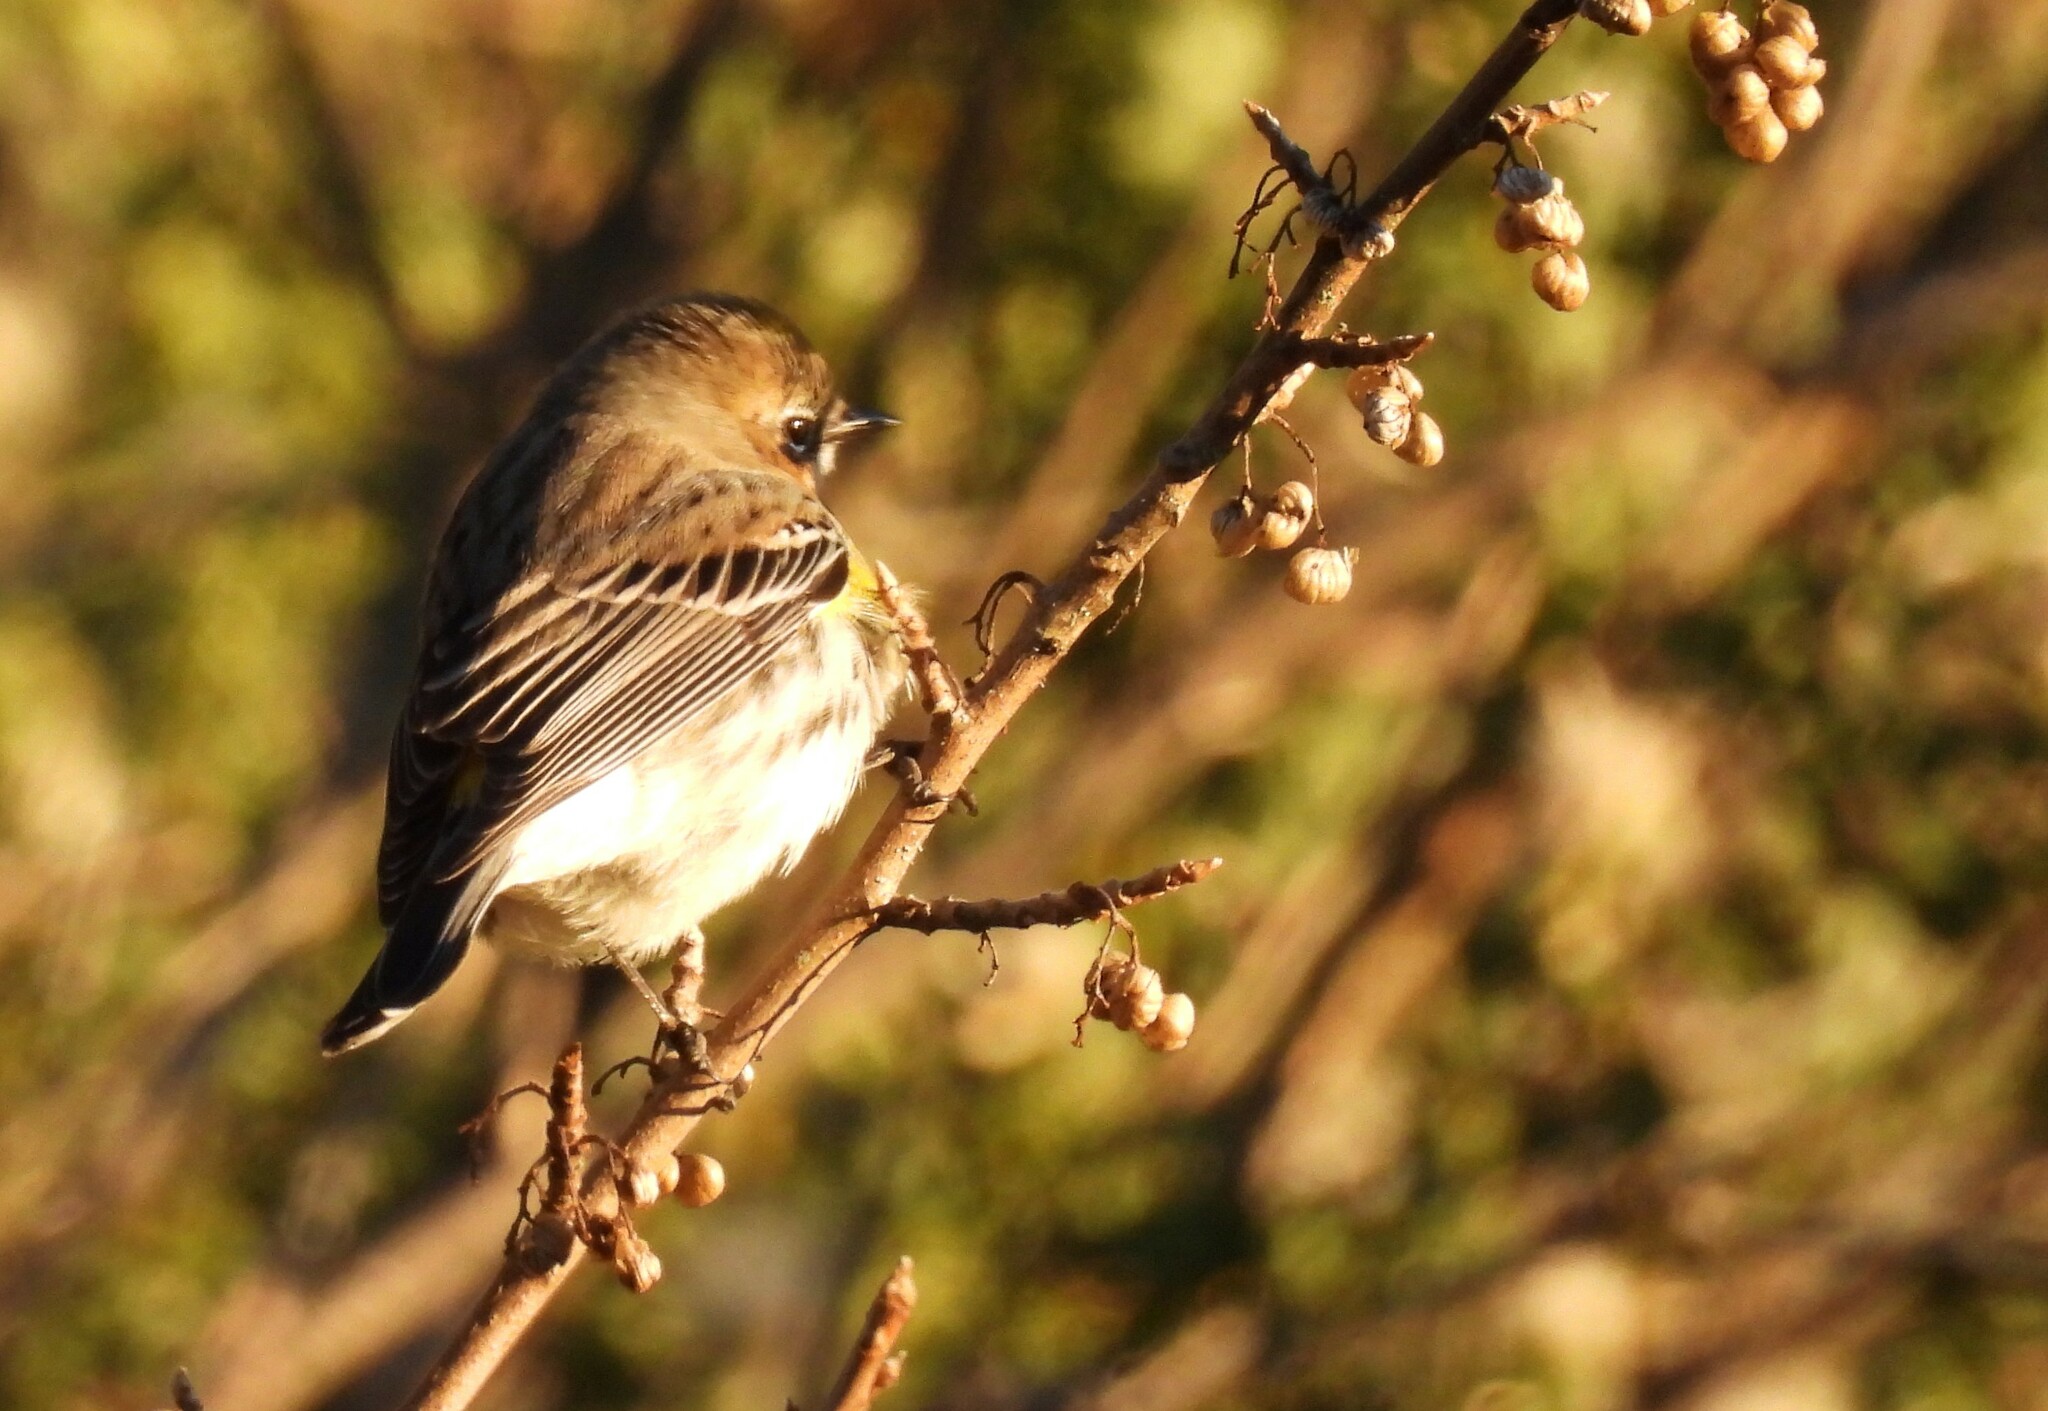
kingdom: Animalia
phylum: Chordata
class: Aves
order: Passeriformes
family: Parulidae
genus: Setophaga
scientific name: Setophaga coronata
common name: Myrtle warbler
